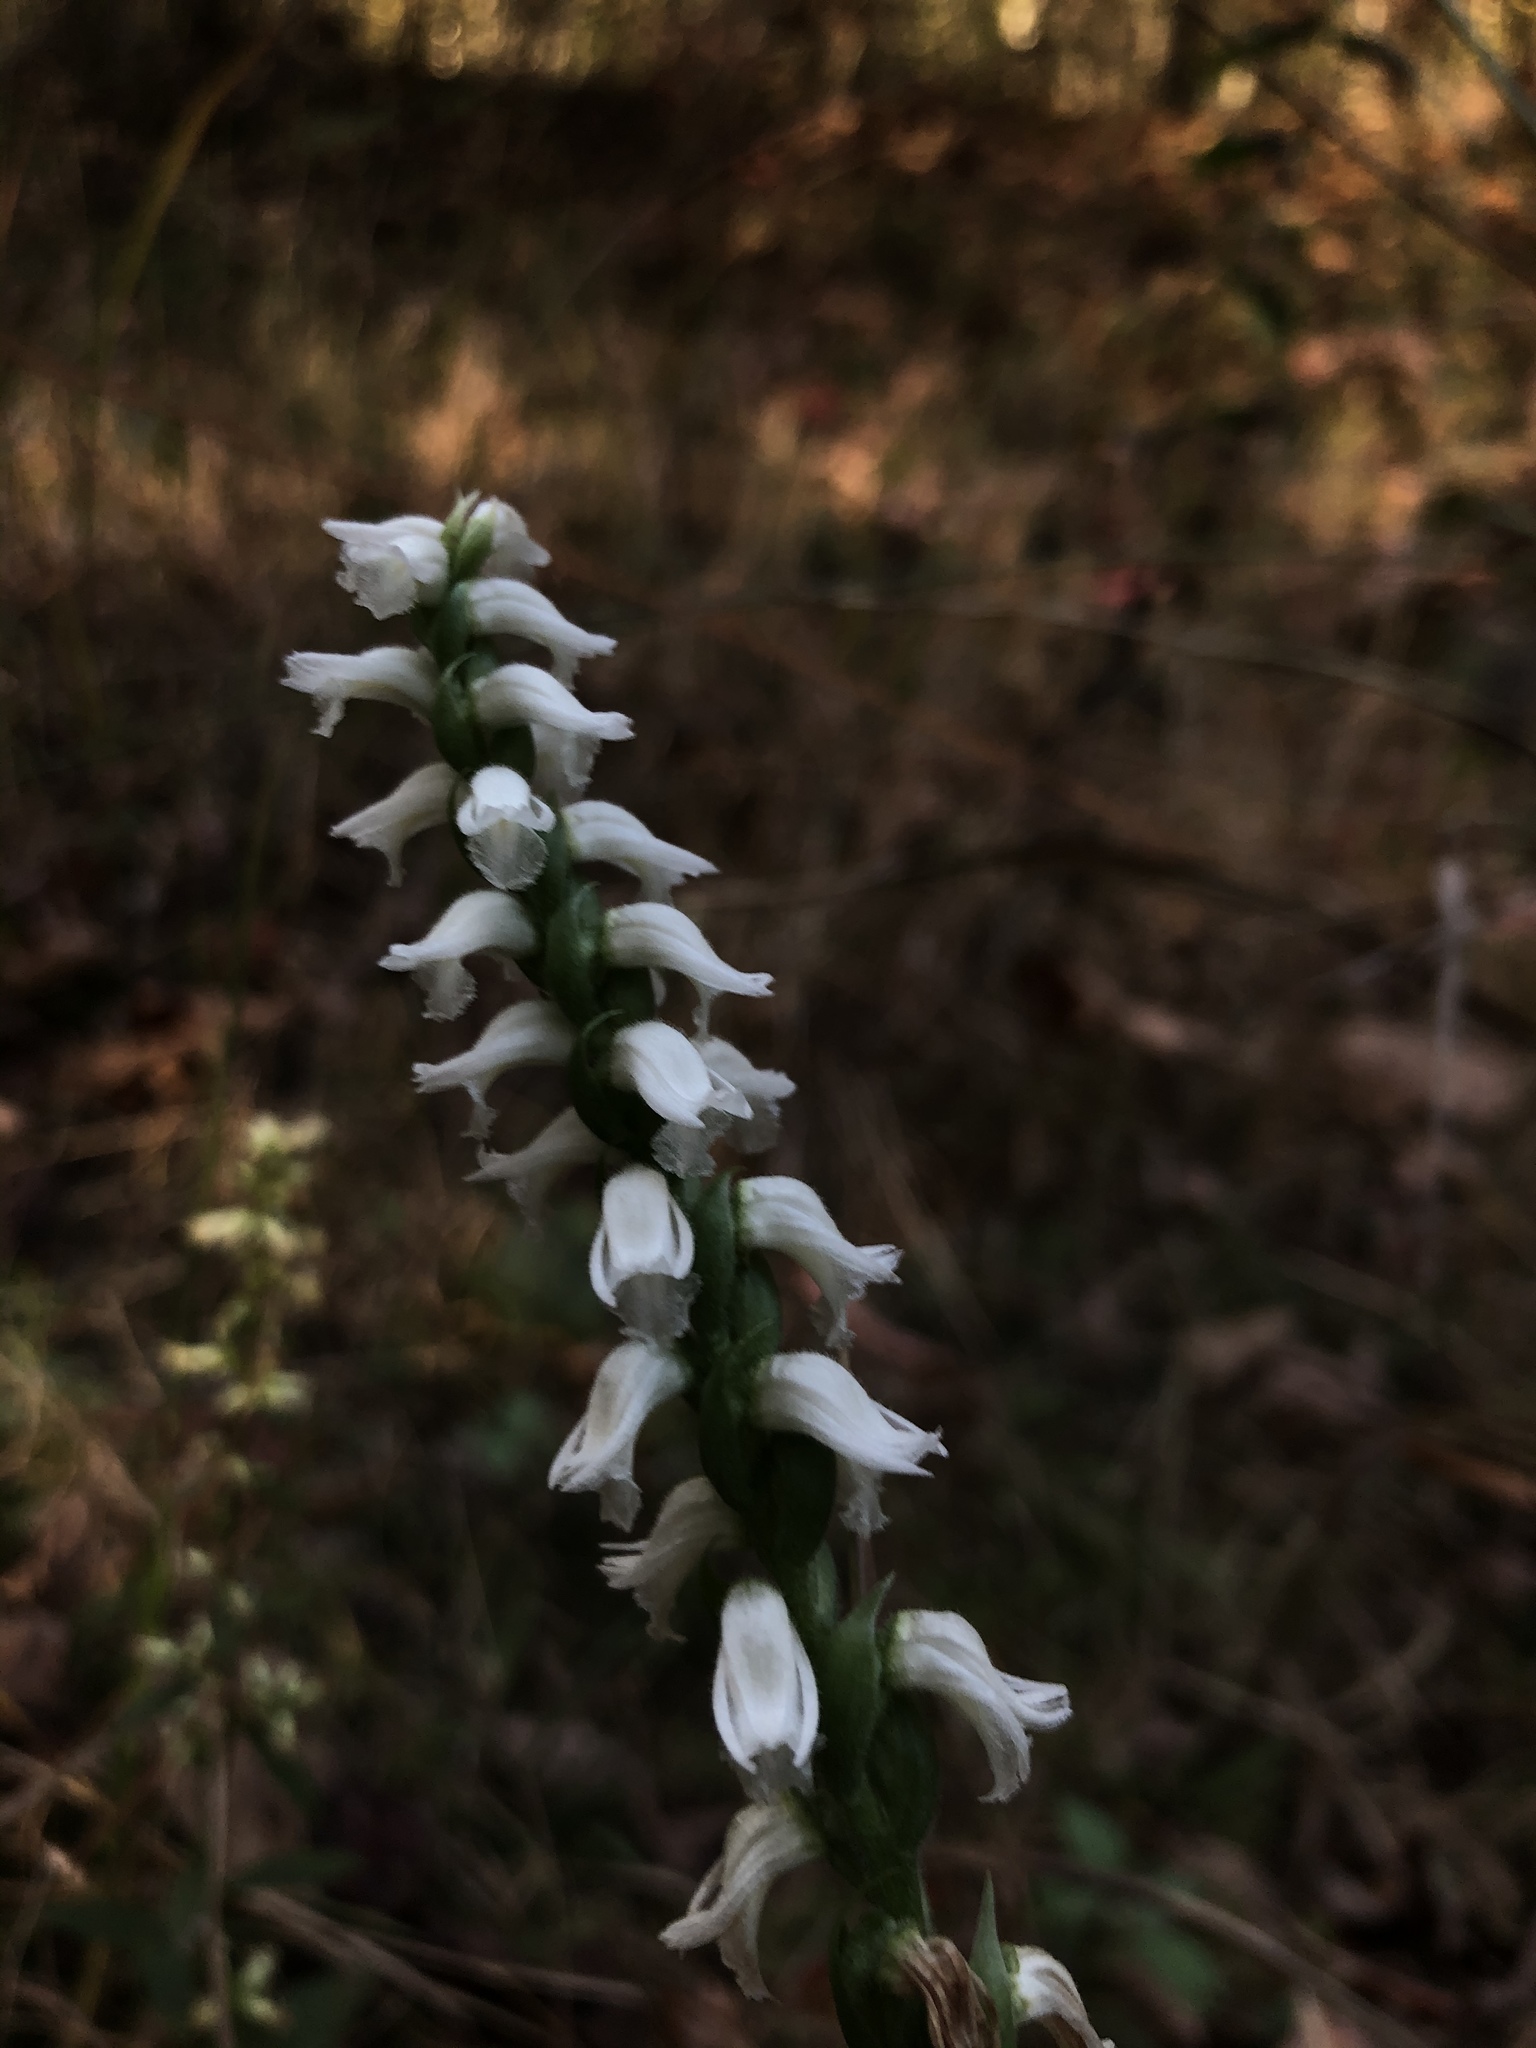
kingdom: Plantae
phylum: Tracheophyta
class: Liliopsida
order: Asparagales
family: Orchidaceae
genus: Spiranthes
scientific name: Spiranthes cernua
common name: Dropping ladies'-tresses
